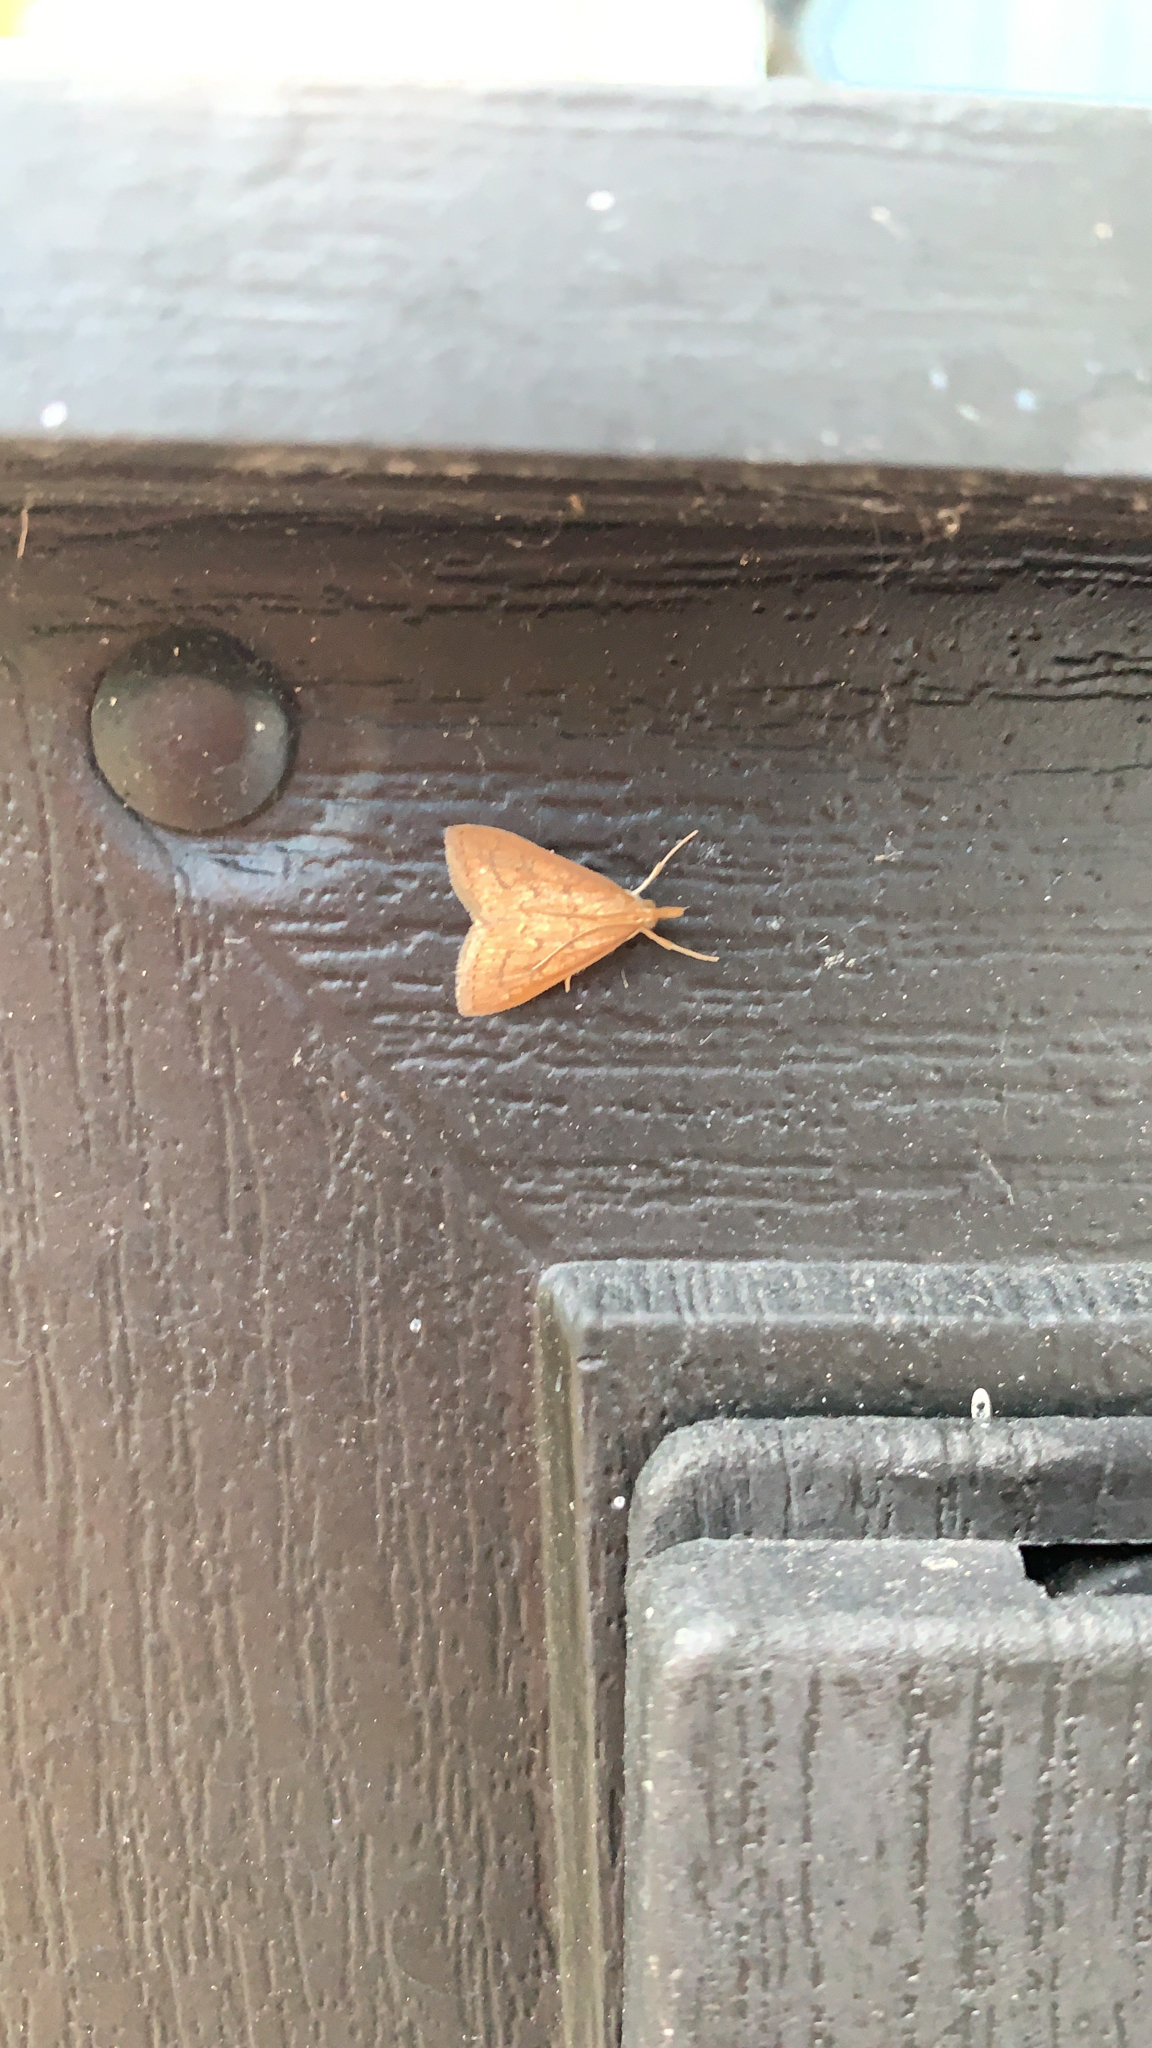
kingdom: Animalia
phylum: Arthropoda
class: Insecta
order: Lepidoptera
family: Crambidae
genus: Udea
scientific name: Udea rubigalis
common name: Celery leaftier moth
